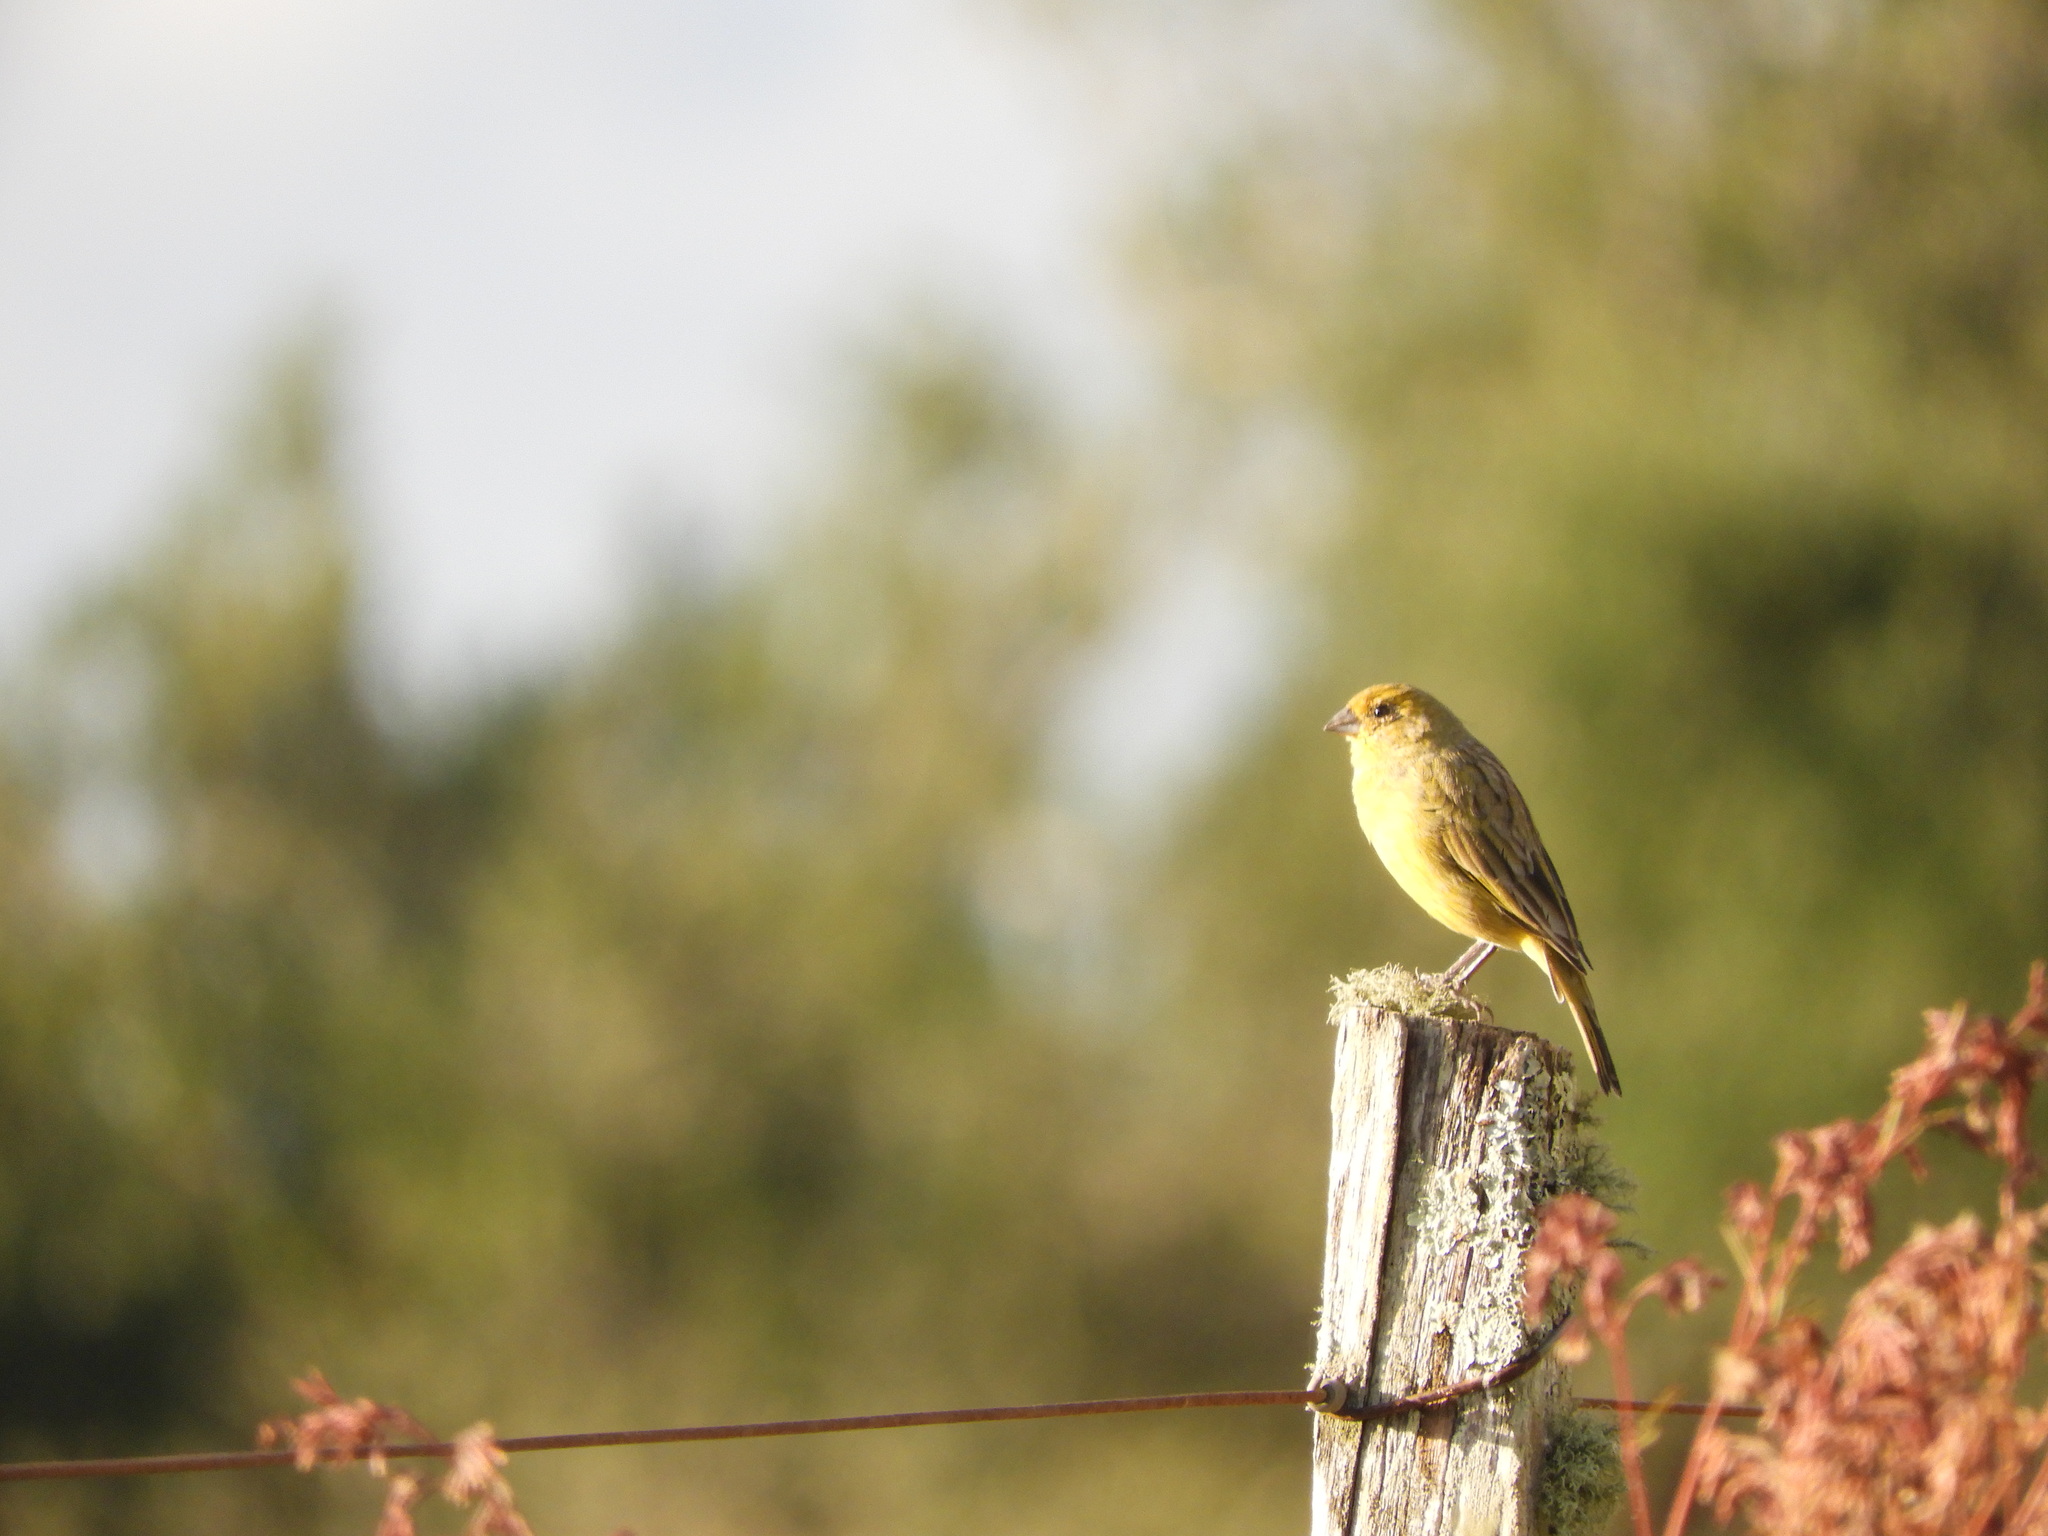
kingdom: Animalia
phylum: Chordata
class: Aves
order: Passeriformes
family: Thraupidae
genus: Sicalis
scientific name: Sicalis flaveola
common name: Saffron finch
